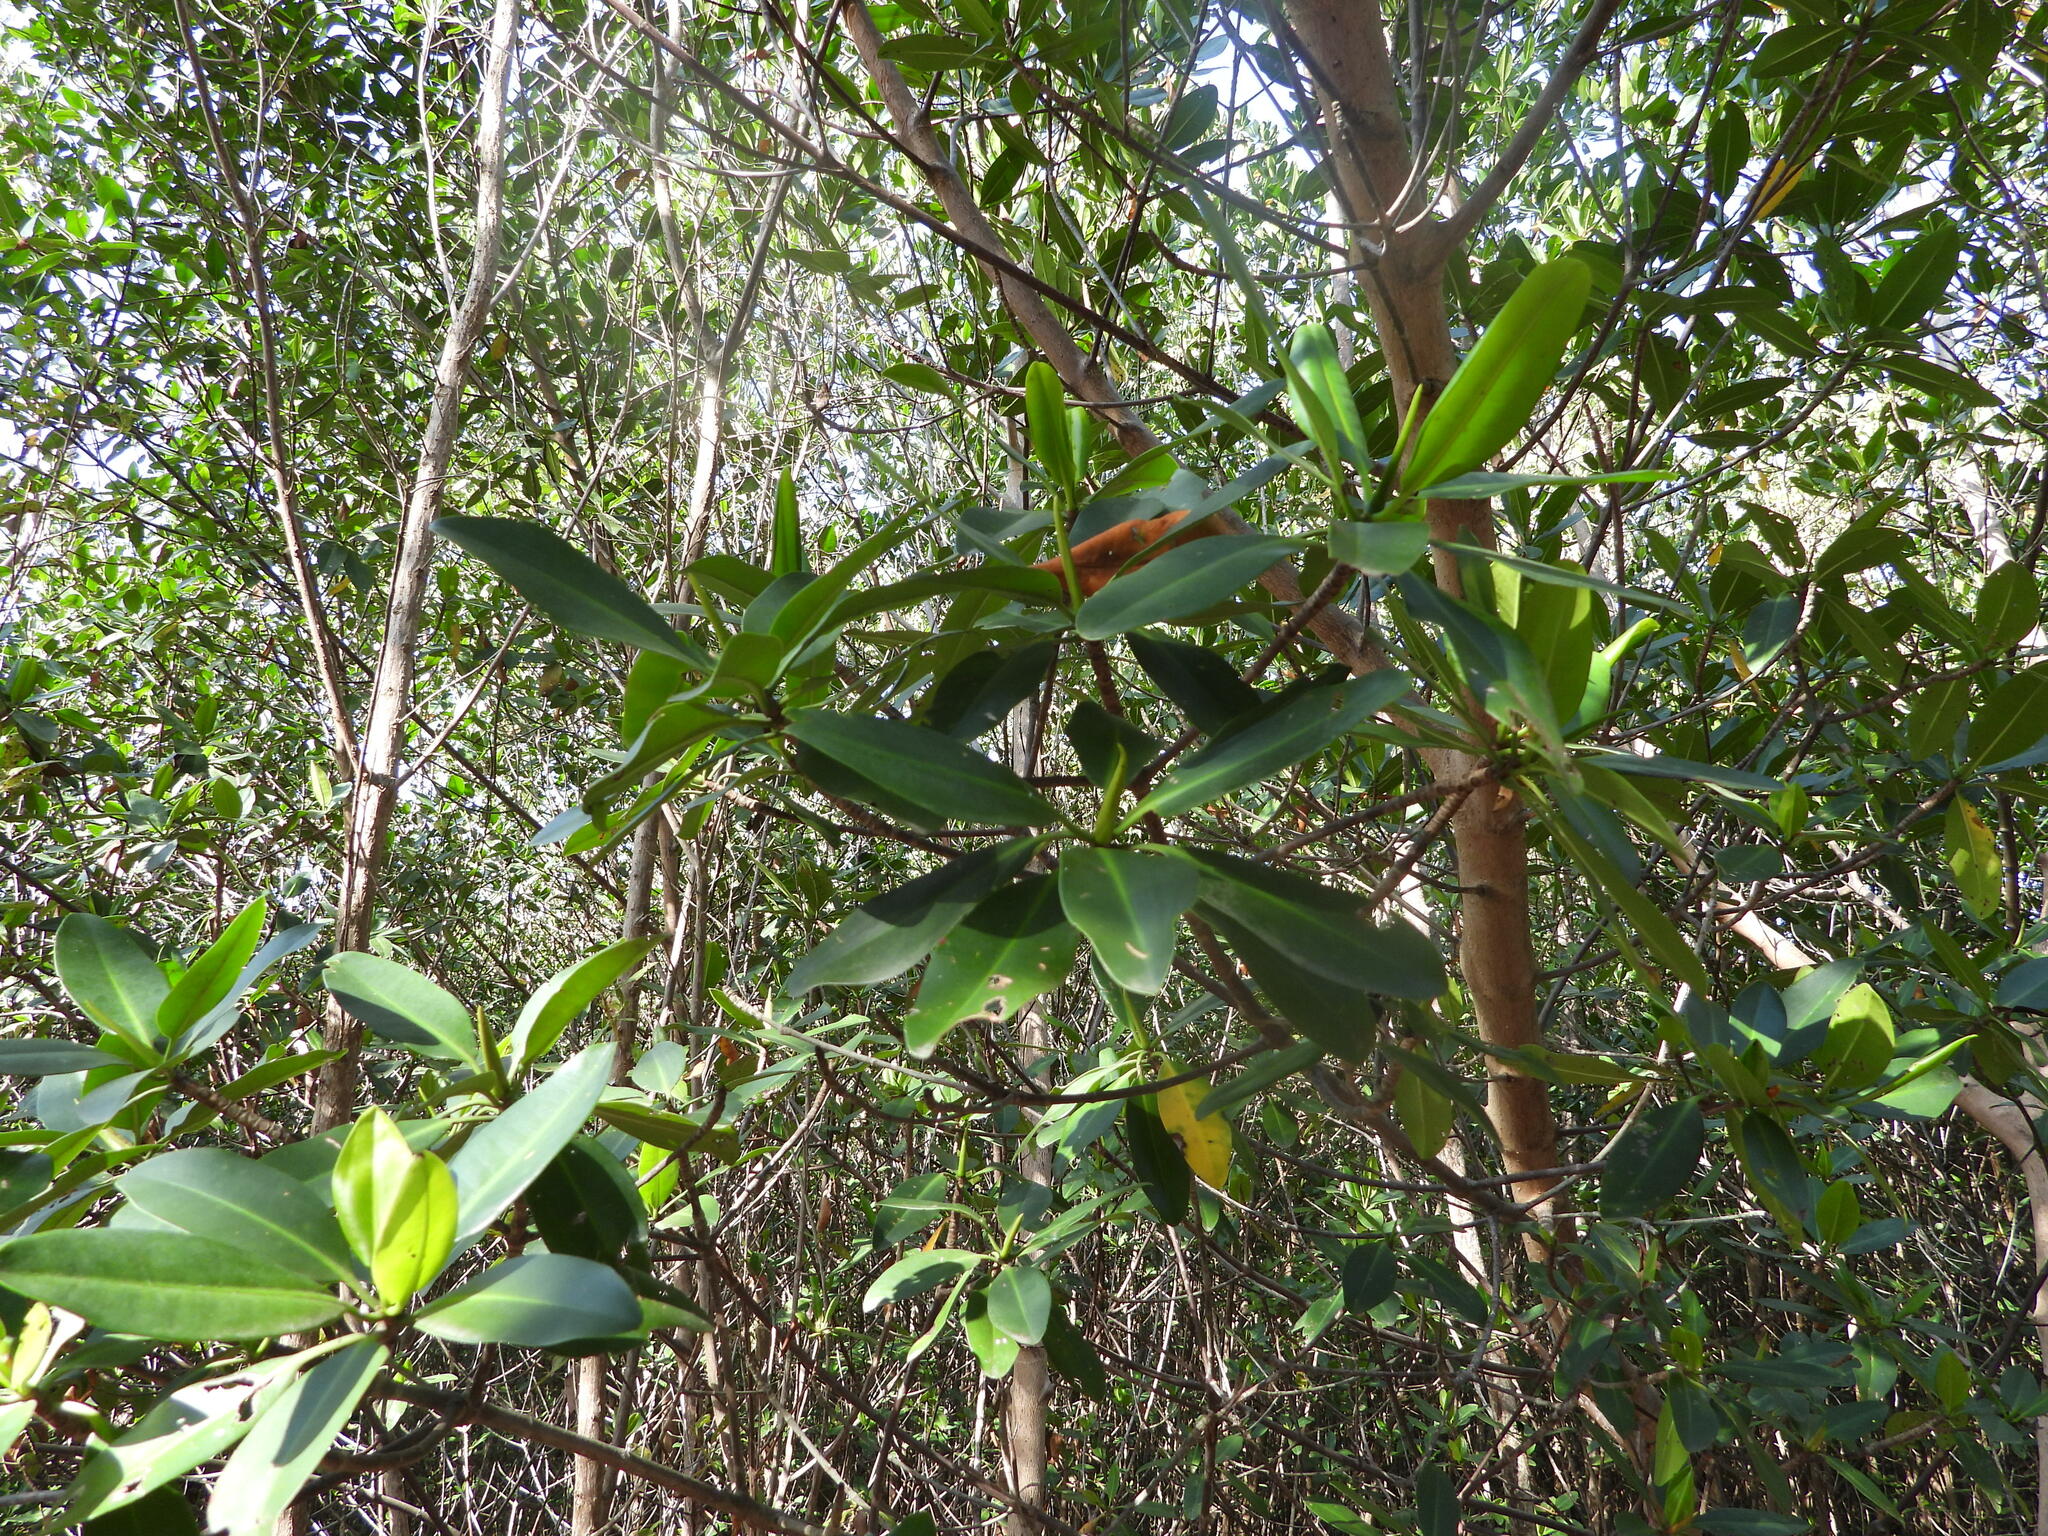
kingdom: Plantae
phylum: Tracheophyta
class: Magnoliopsida
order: Malpighiales
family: Rhizophoraceae
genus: Rhizophora
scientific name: Rhizophora mangle
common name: Red mangrove
